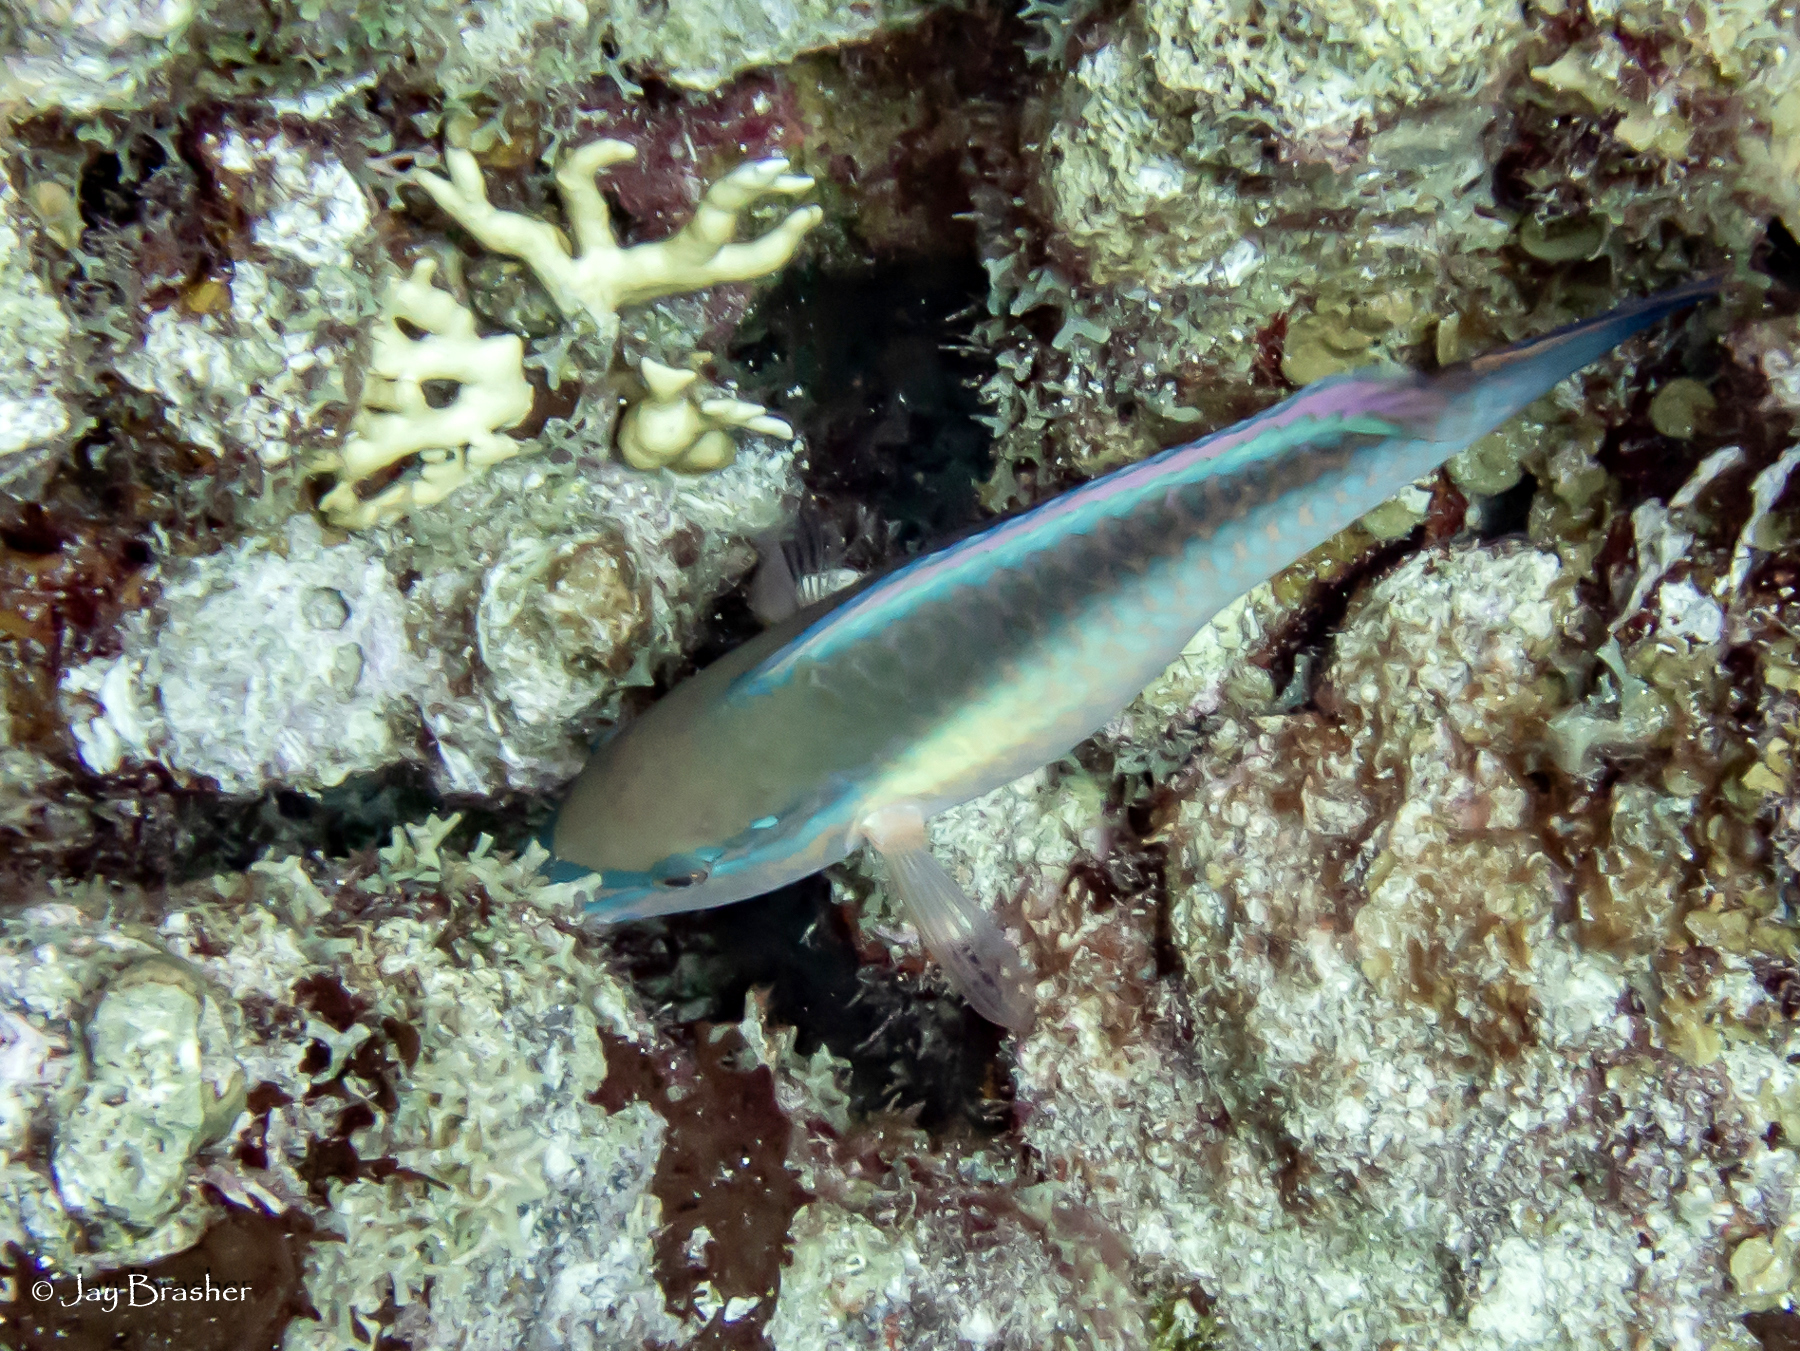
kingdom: Animalia
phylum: Chordata
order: Perciformes
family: Scaridae
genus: Scarus
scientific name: Scarus taeniopterus
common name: Princess parrotfish
